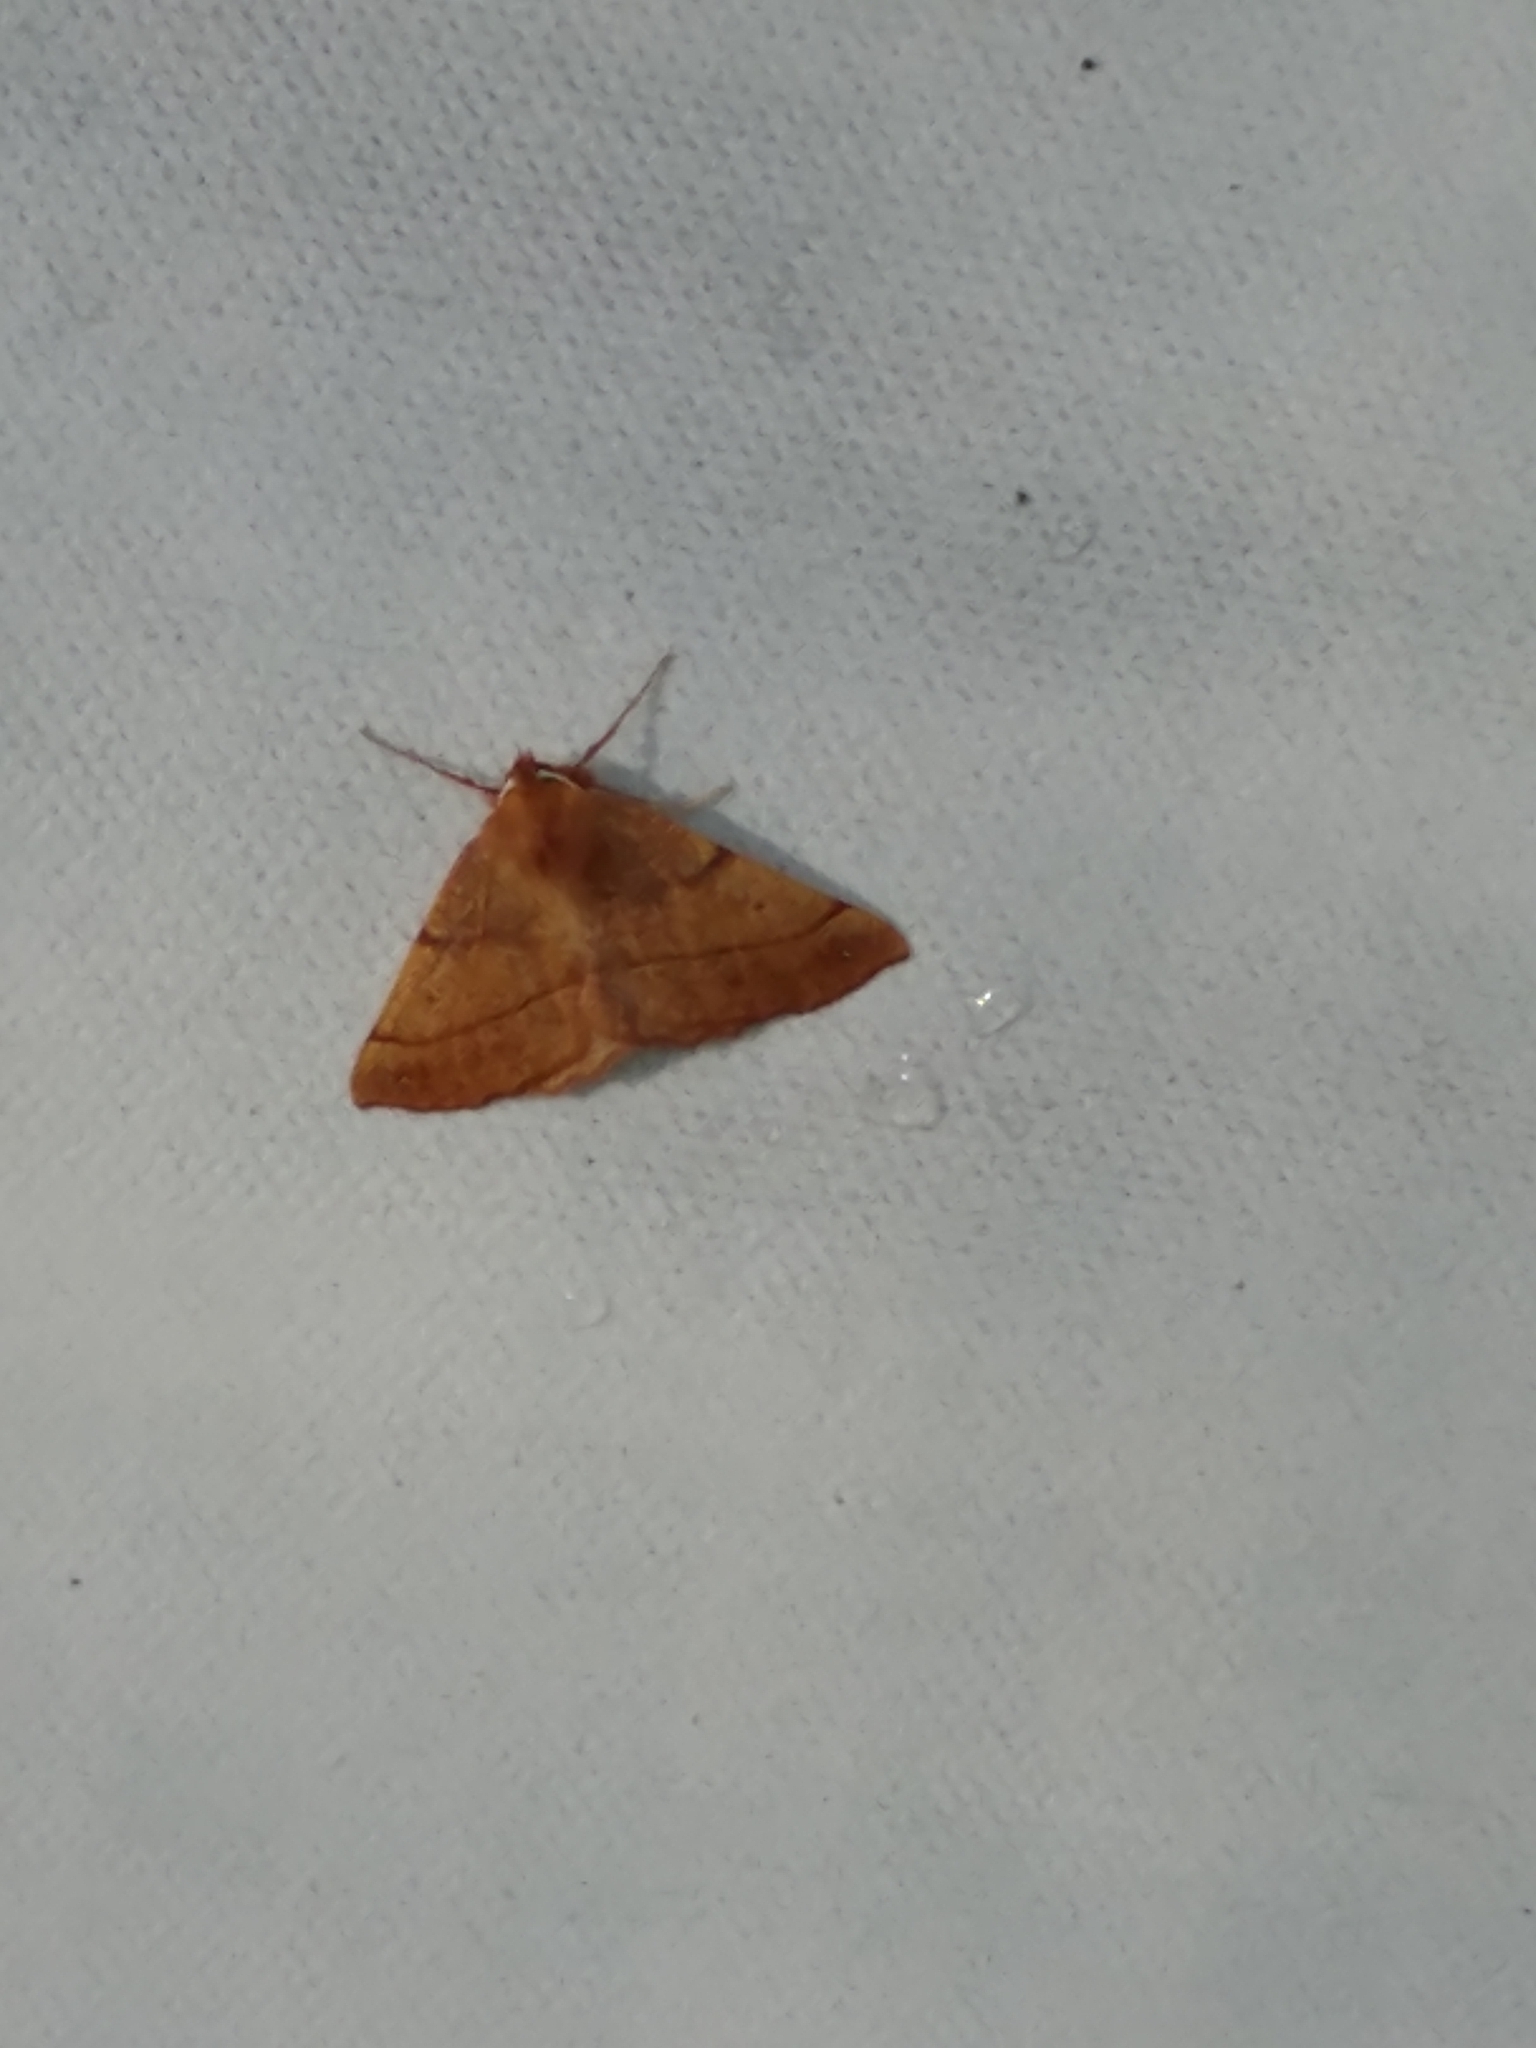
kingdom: Animalia
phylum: Arthropoda
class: Insecta
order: Lepidoptera
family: Geometridae
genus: Colotois
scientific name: Colotois pennaria
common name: Feathered thorn
